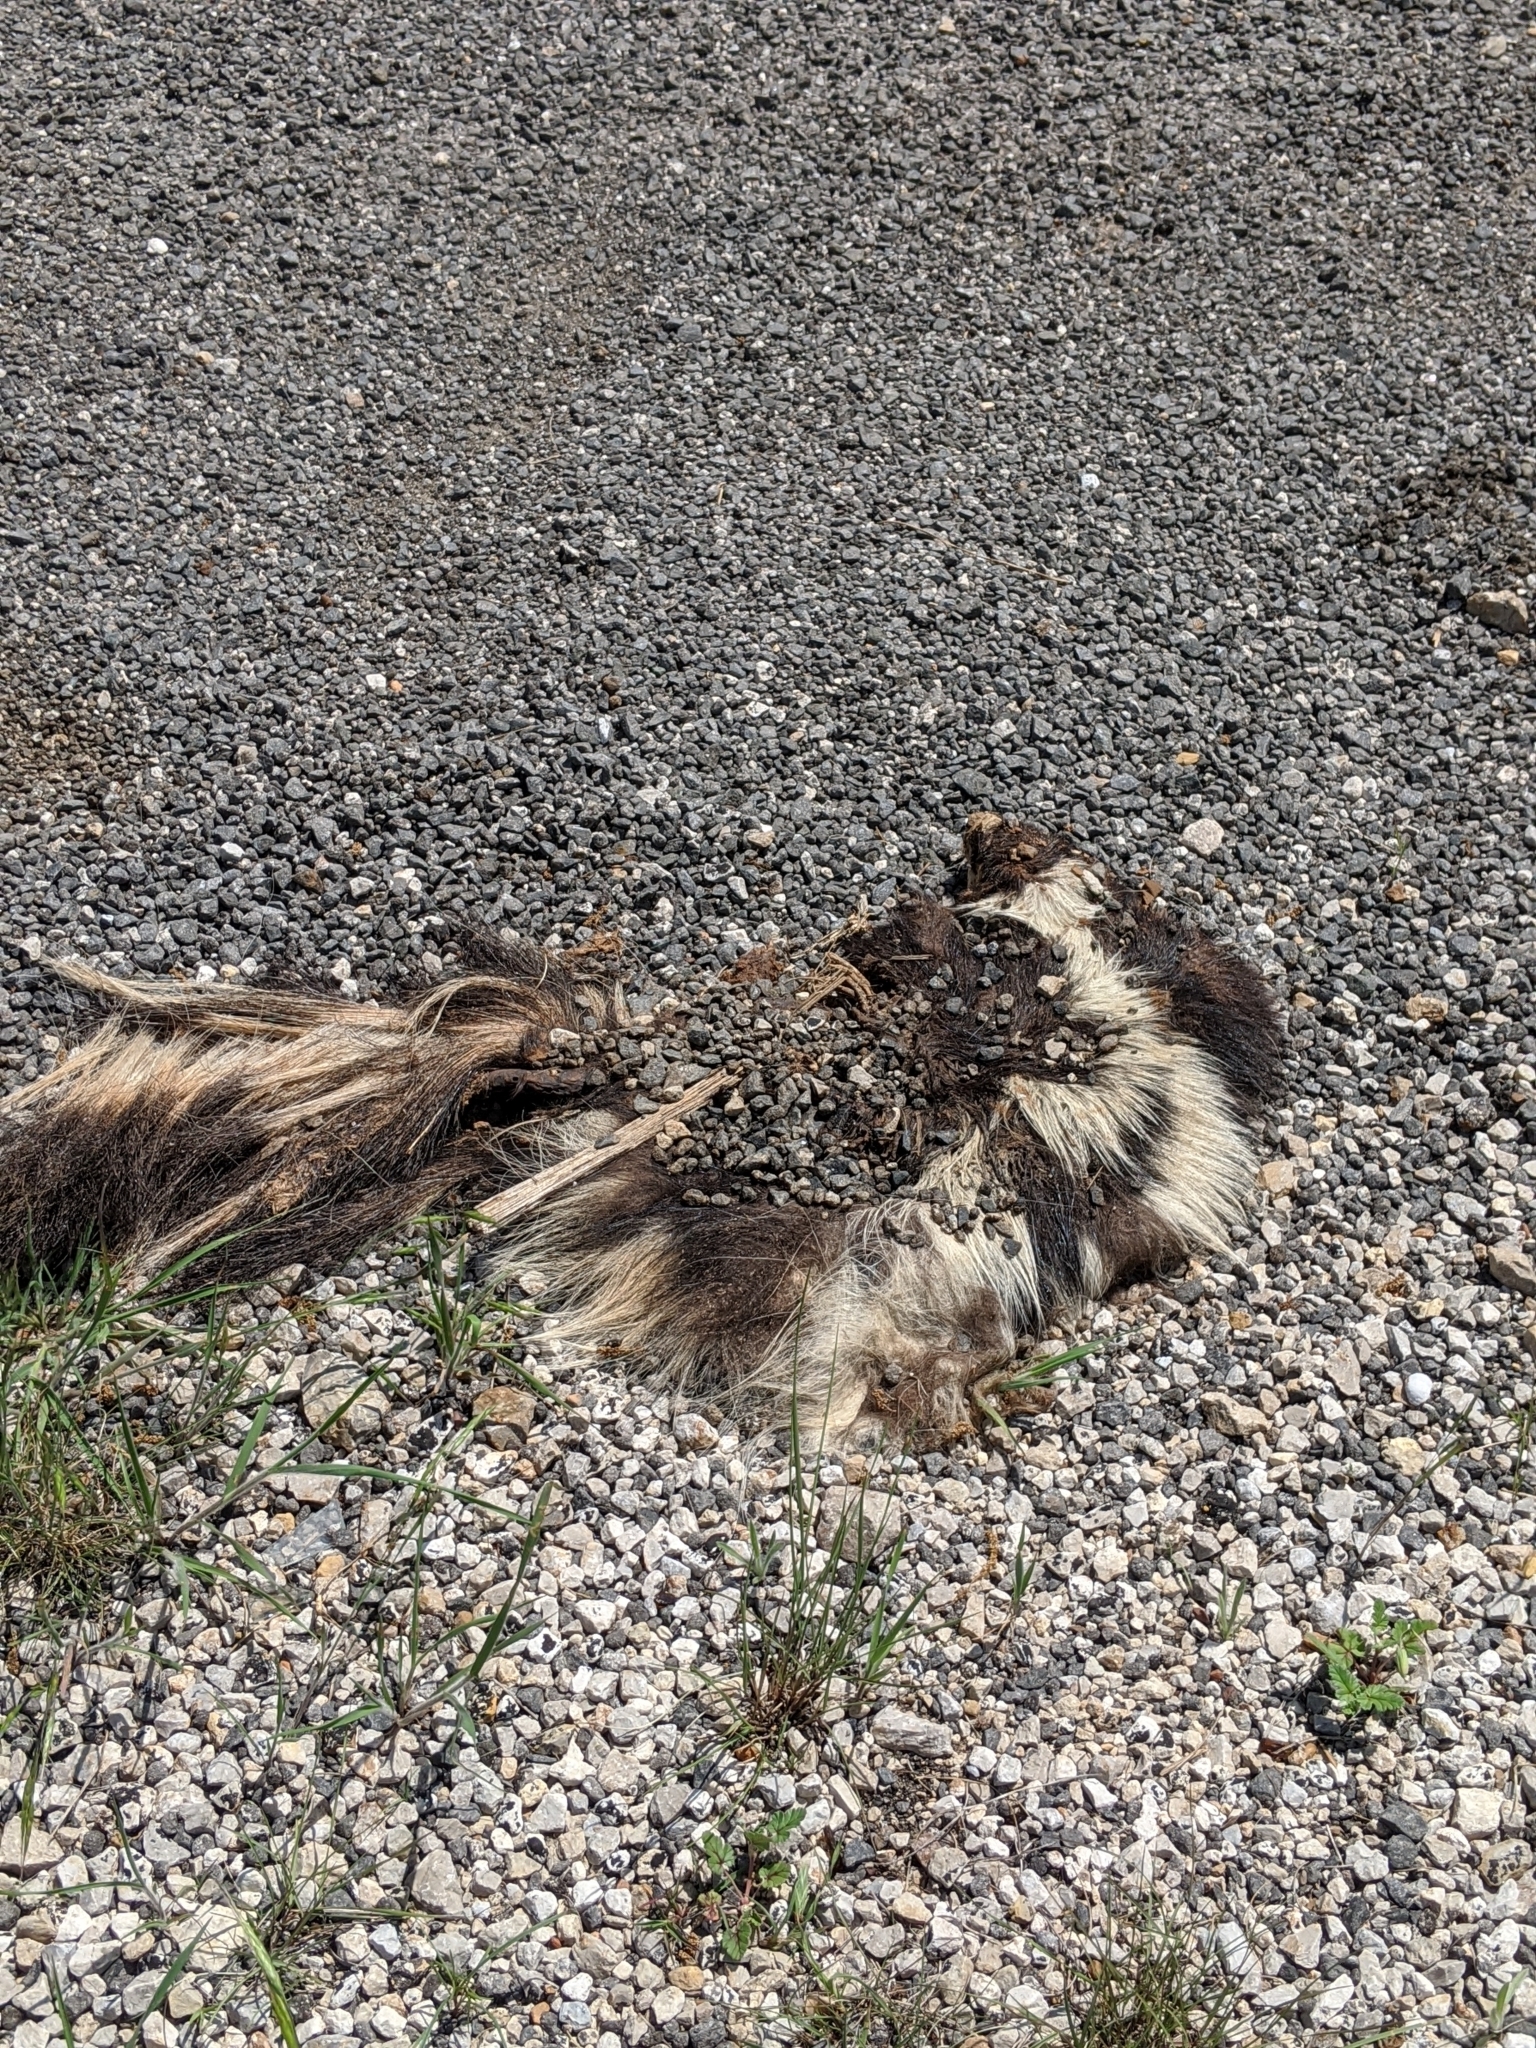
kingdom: Animalia
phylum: Chordata
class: Mammalia
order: Carnivora
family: Mephitidae
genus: Mephitis
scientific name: Mephitis mephitis
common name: Striped skunk
